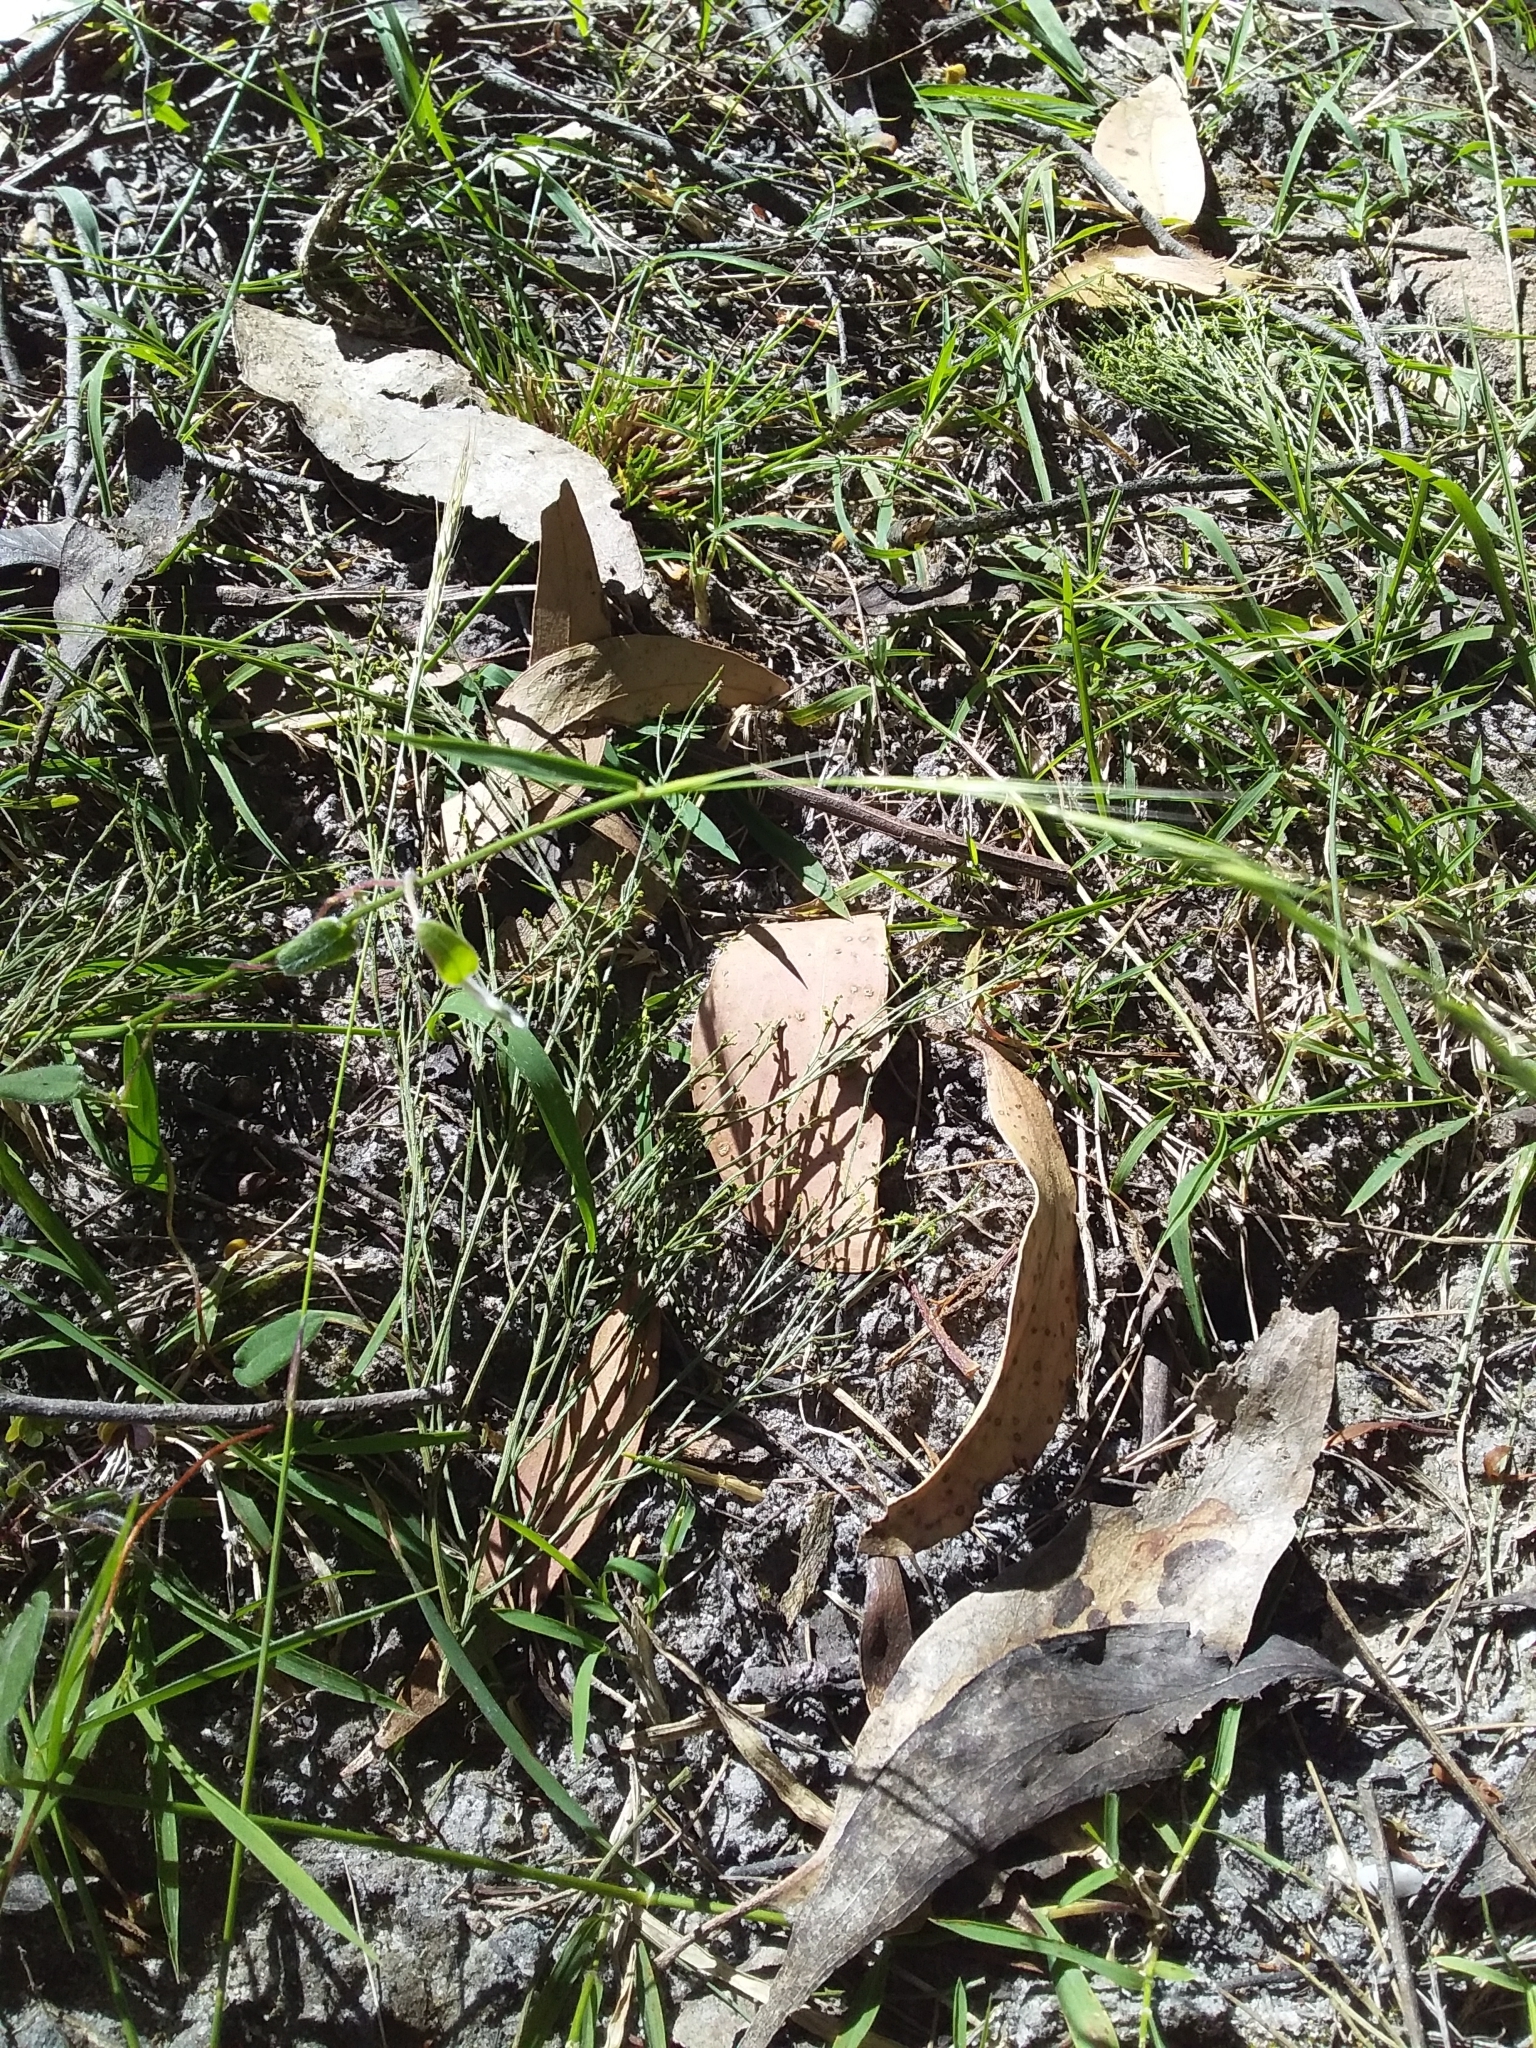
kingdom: Plantae
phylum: Tracheophyta
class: Liliopsida
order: Poales
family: Poaceae
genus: Microlaena
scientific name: Microlaena stipoides
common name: Meadow ricegrass
